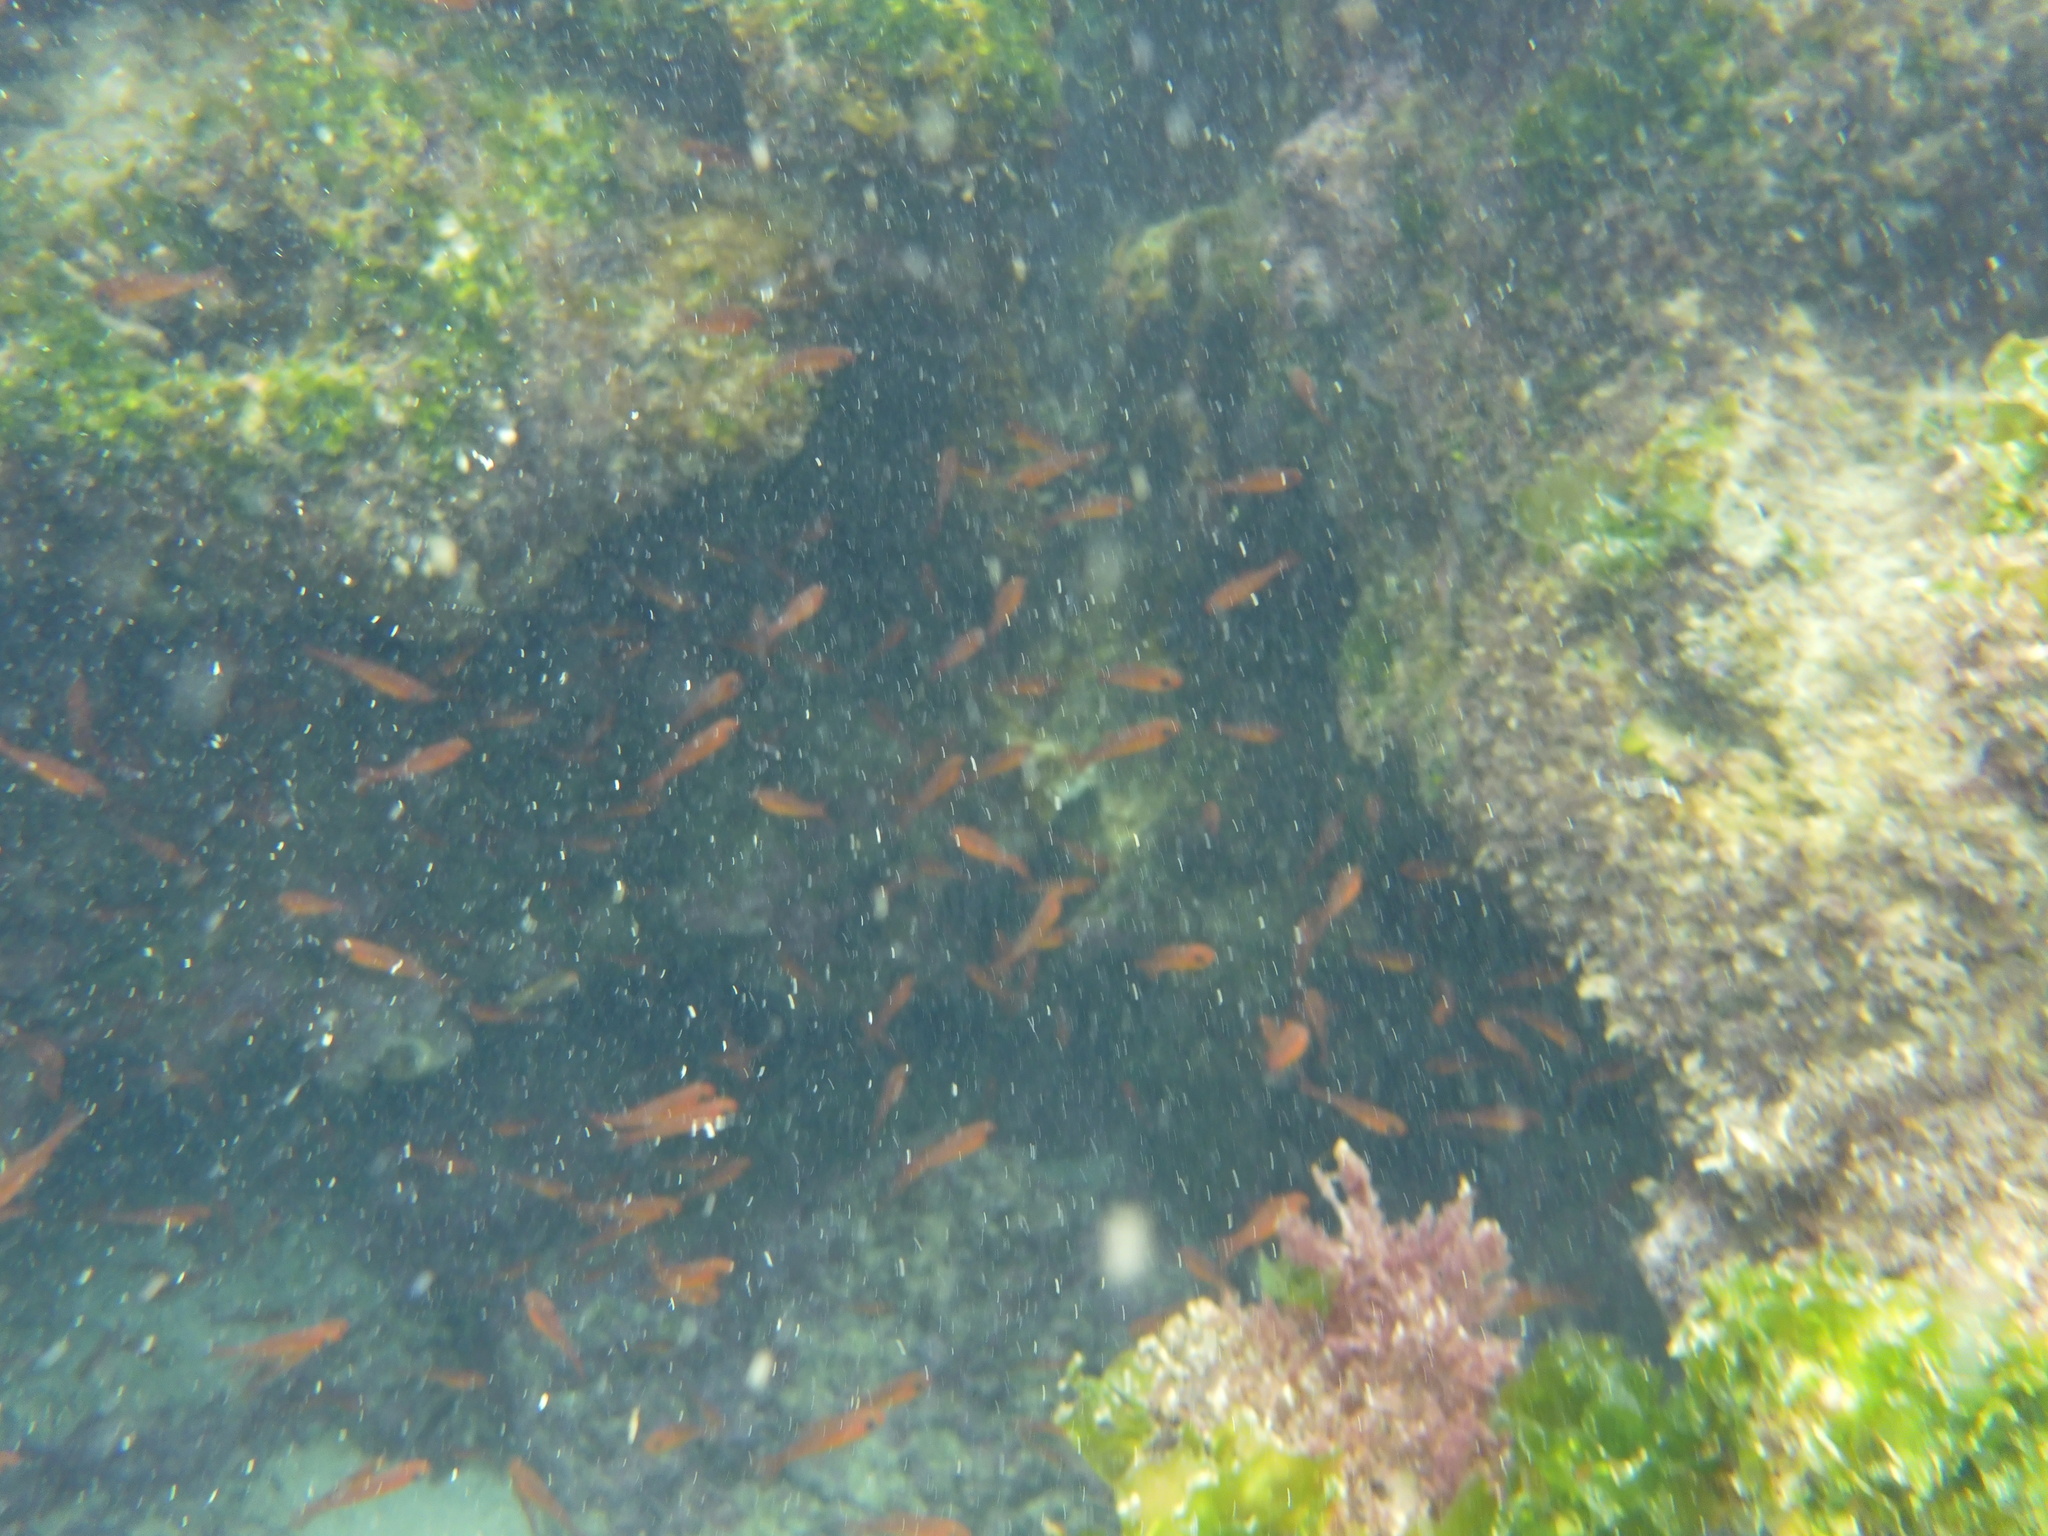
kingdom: Animalia
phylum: Chordata
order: Perciformes
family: Apogonidae
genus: Apogon
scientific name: Apogon atradorsatus
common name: Blacktip cardinalfish
